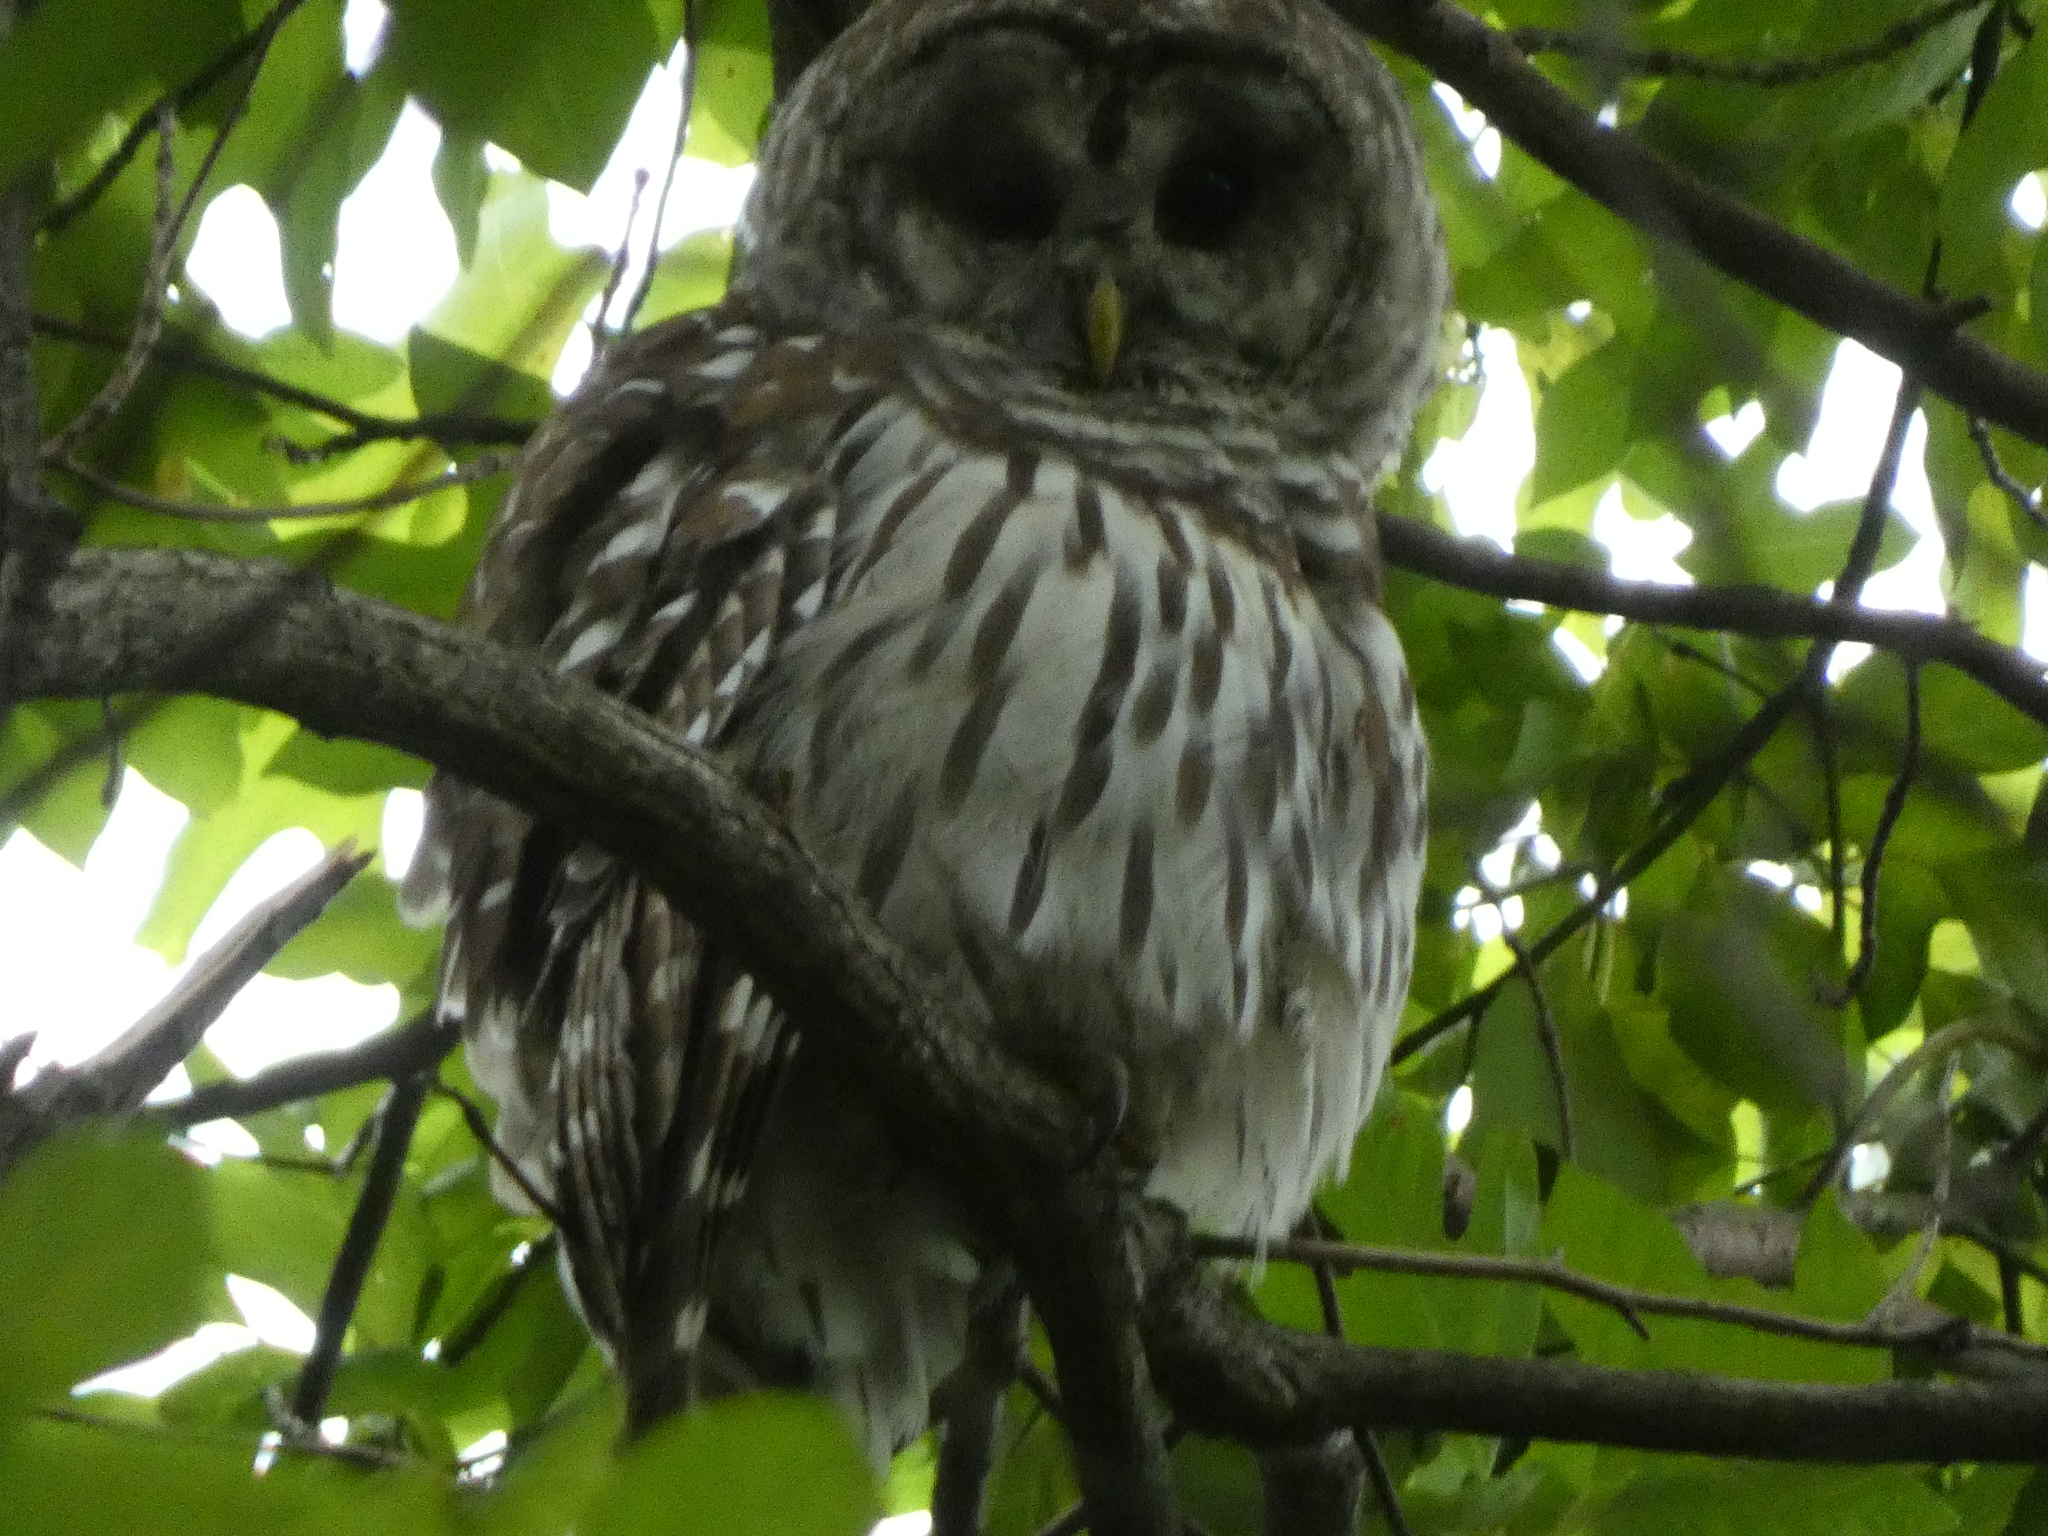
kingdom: Animalia
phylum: Chordata
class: Aves
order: Strigiformes
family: Strigidae
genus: Strix
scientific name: Strix varia
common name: Barred owl
